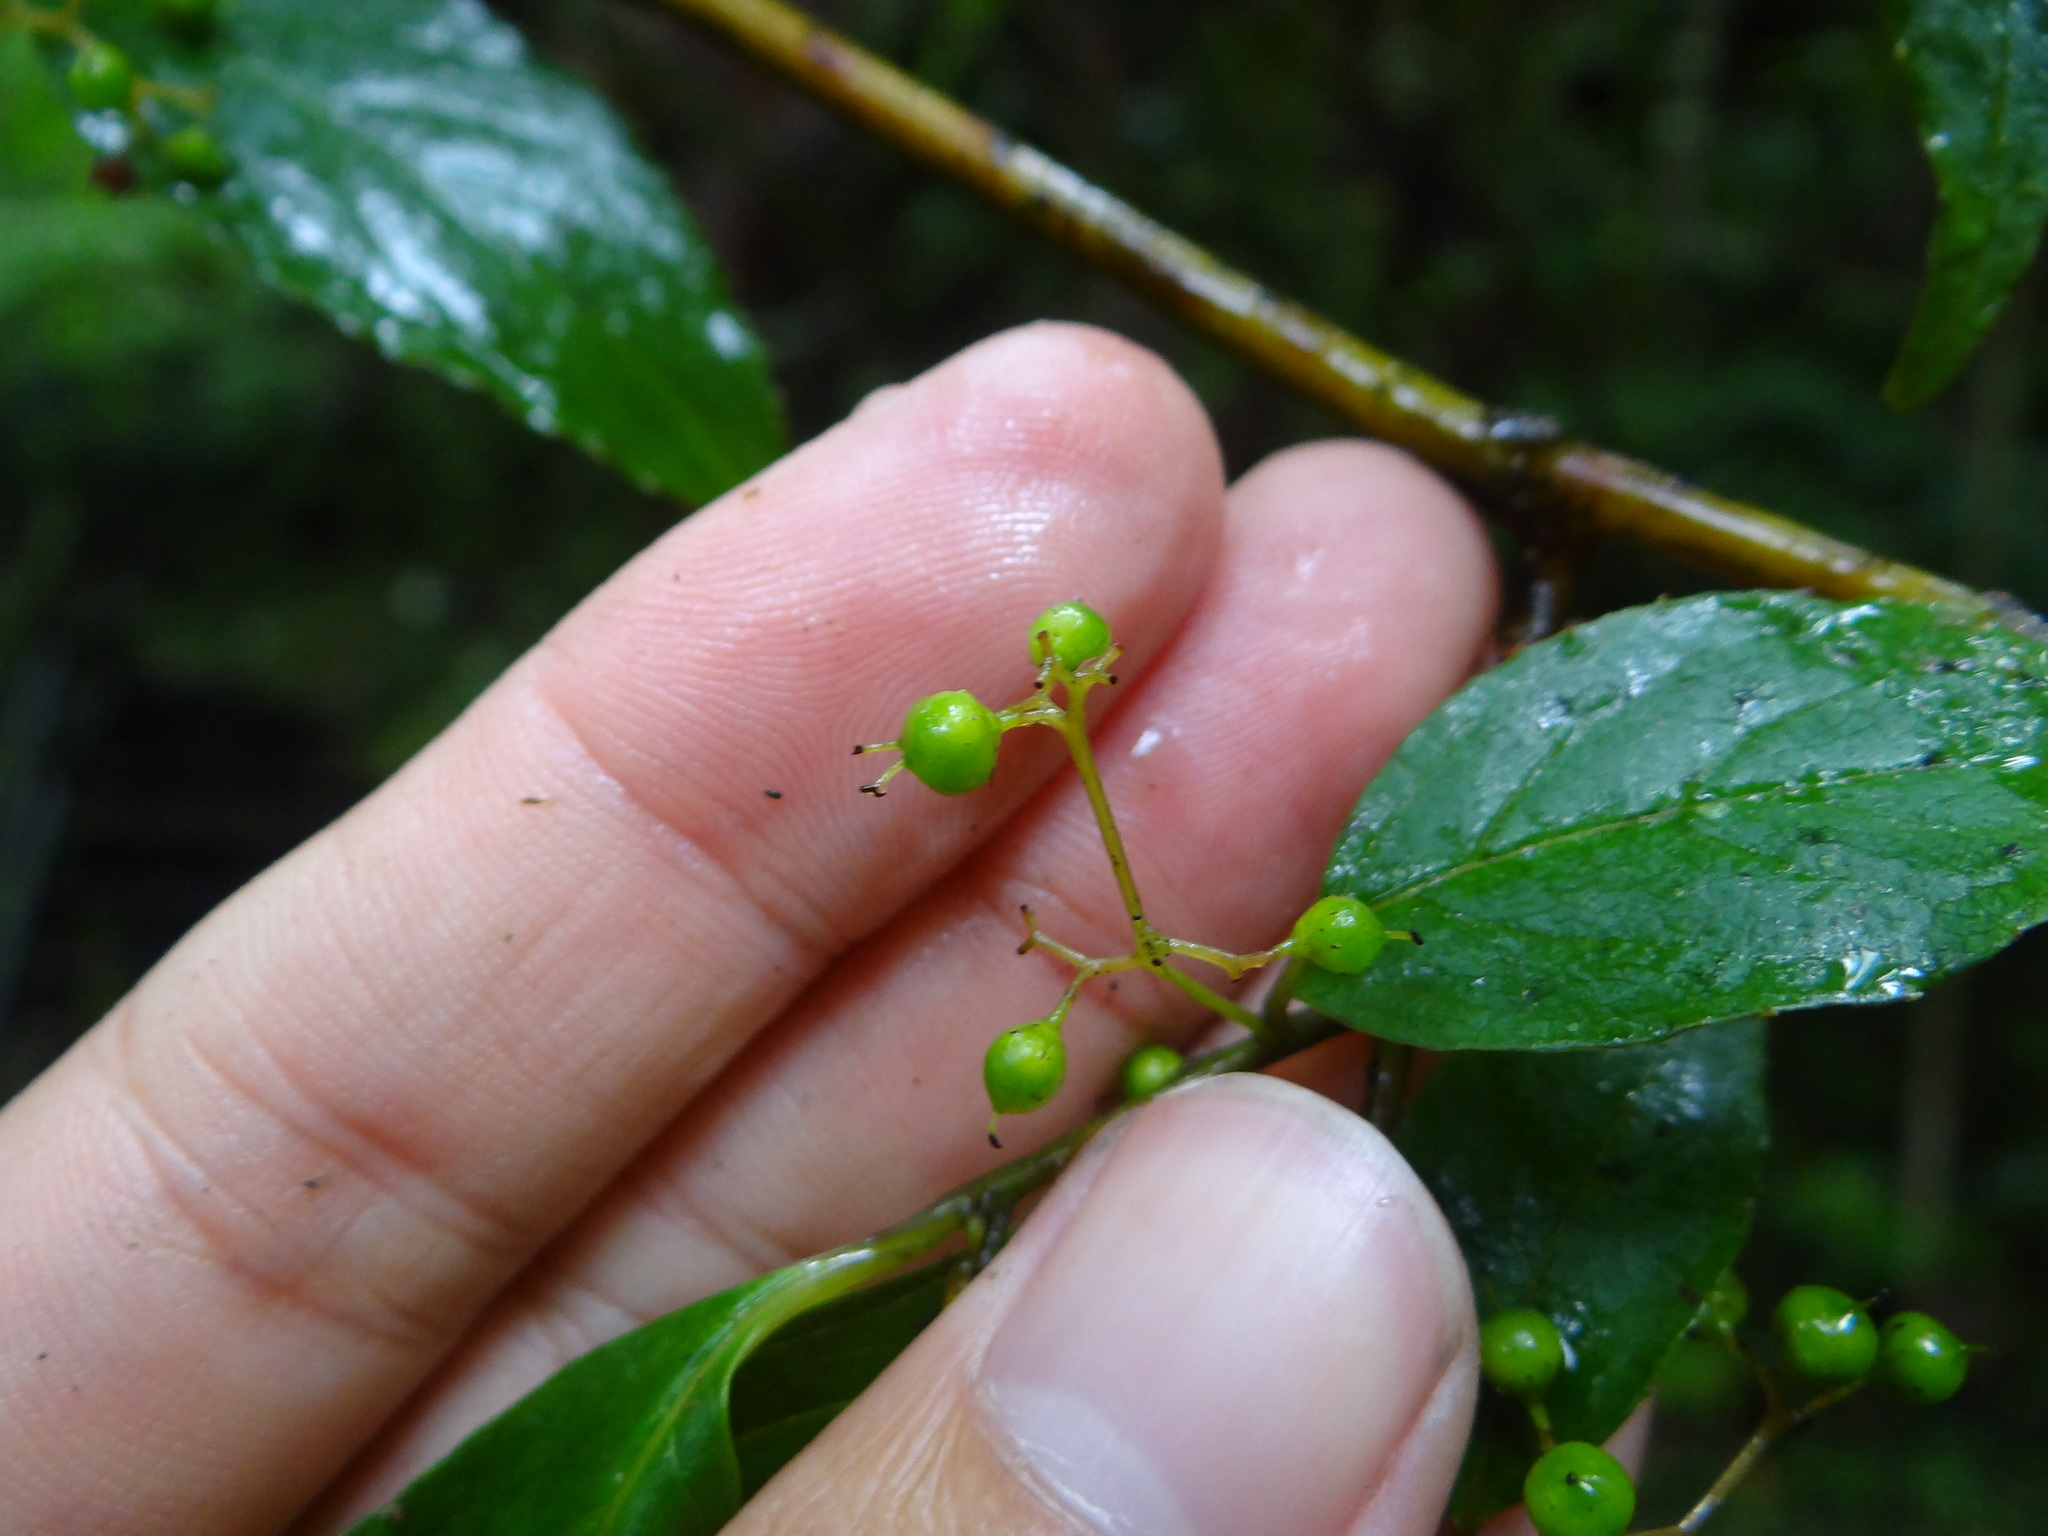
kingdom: Plantae
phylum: Tracheophyta
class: Magnoliopsida
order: Huerteales
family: Dipentodontaceae
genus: Perrottetia
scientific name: Perrottetia arisanensis
